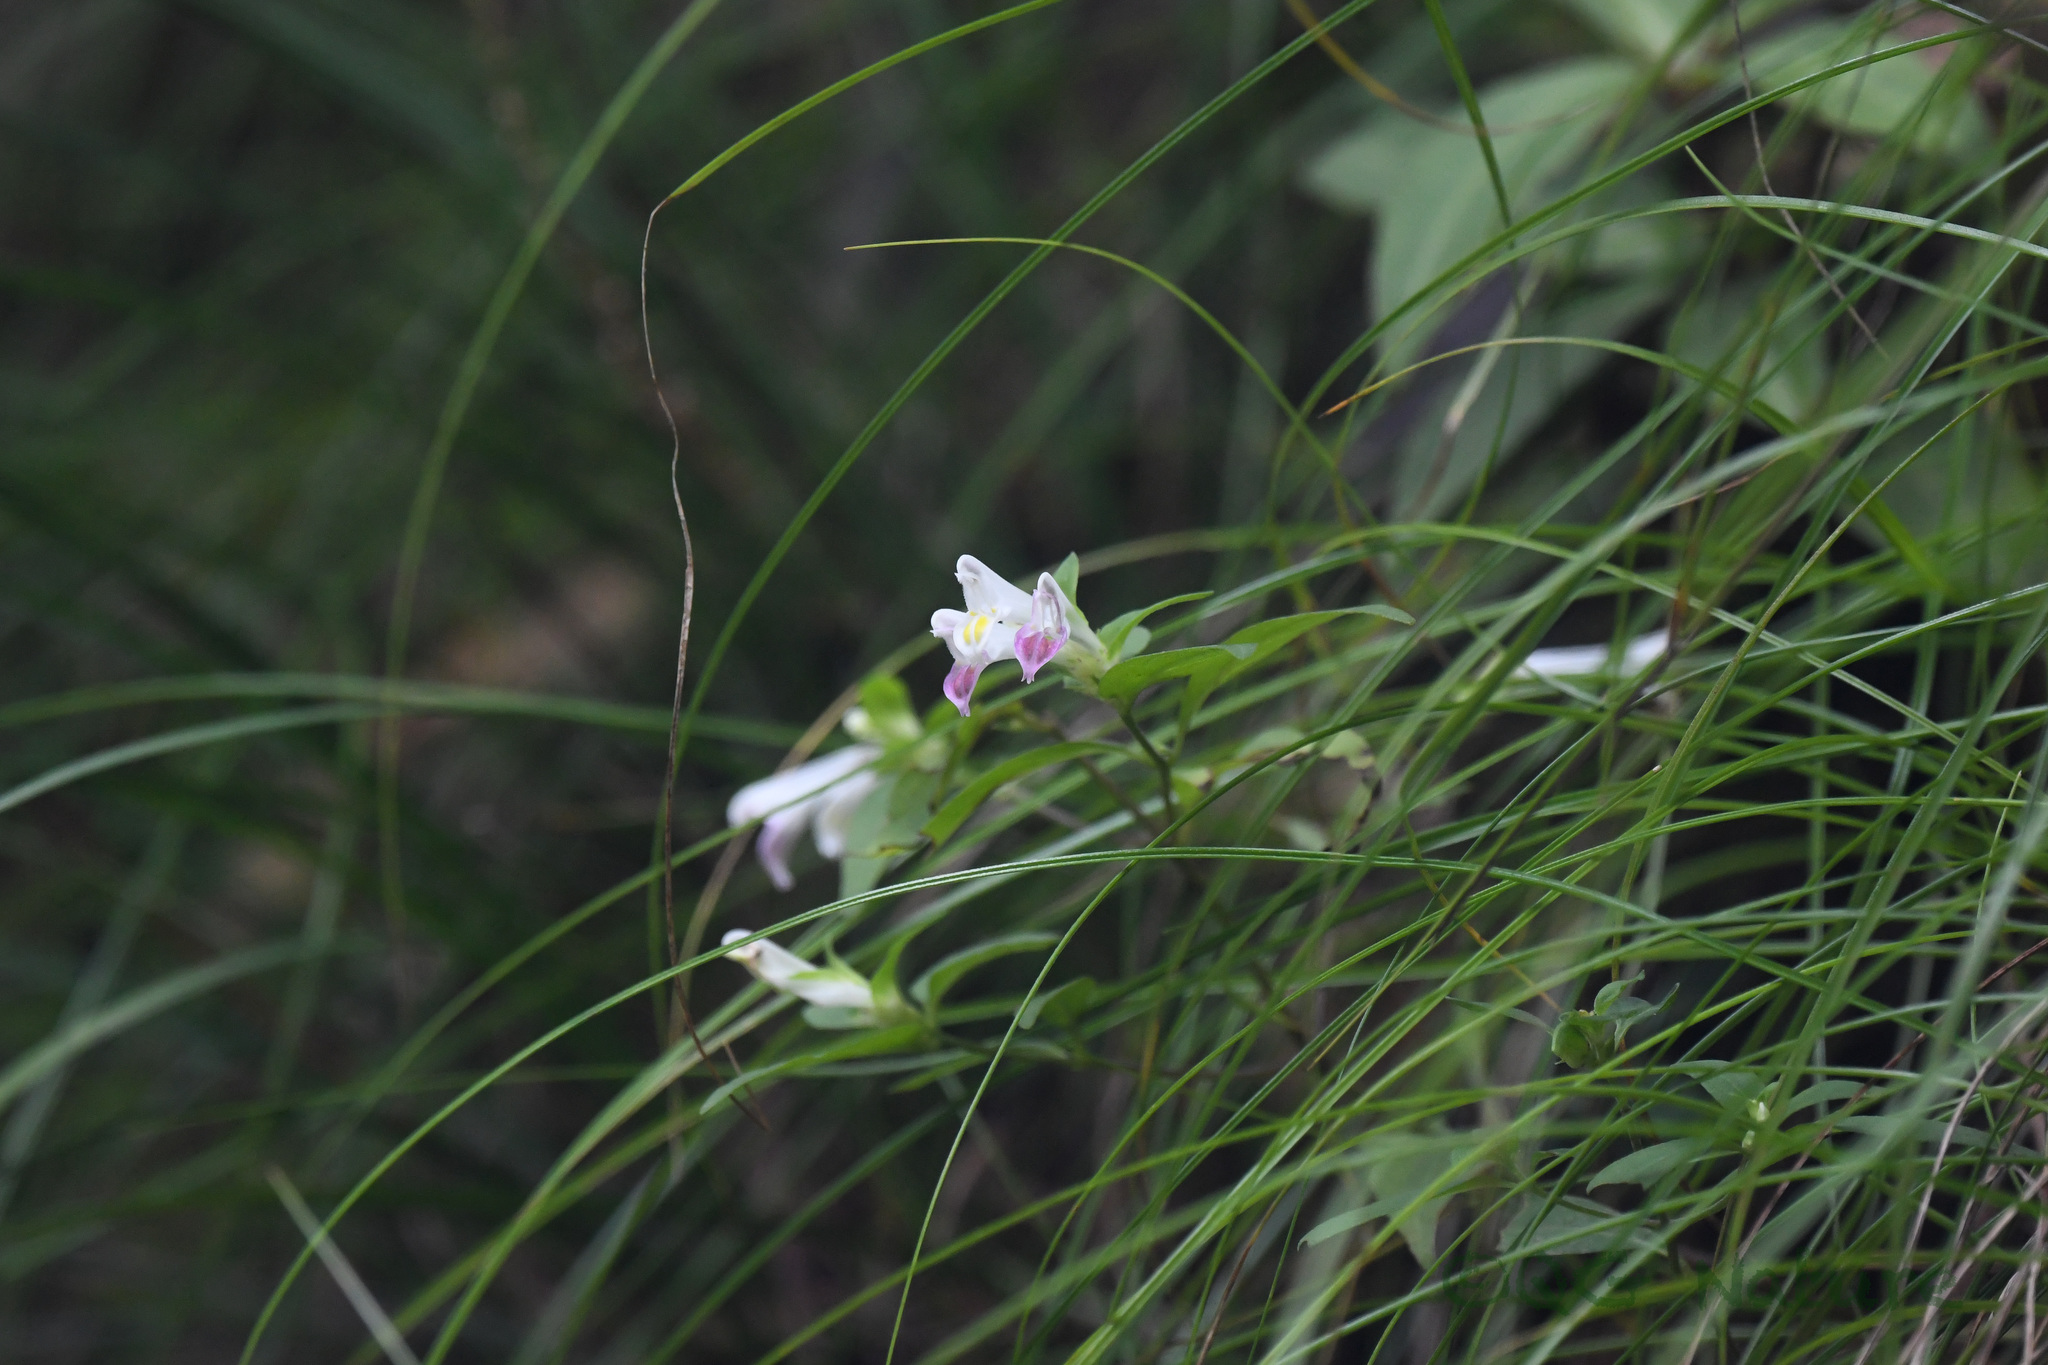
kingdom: Plantae
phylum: Tracheophyta
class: Magnoliopsida
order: Lamiales
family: Orobanchaceae
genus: Melampyrum
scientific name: Melampyrum laxum
